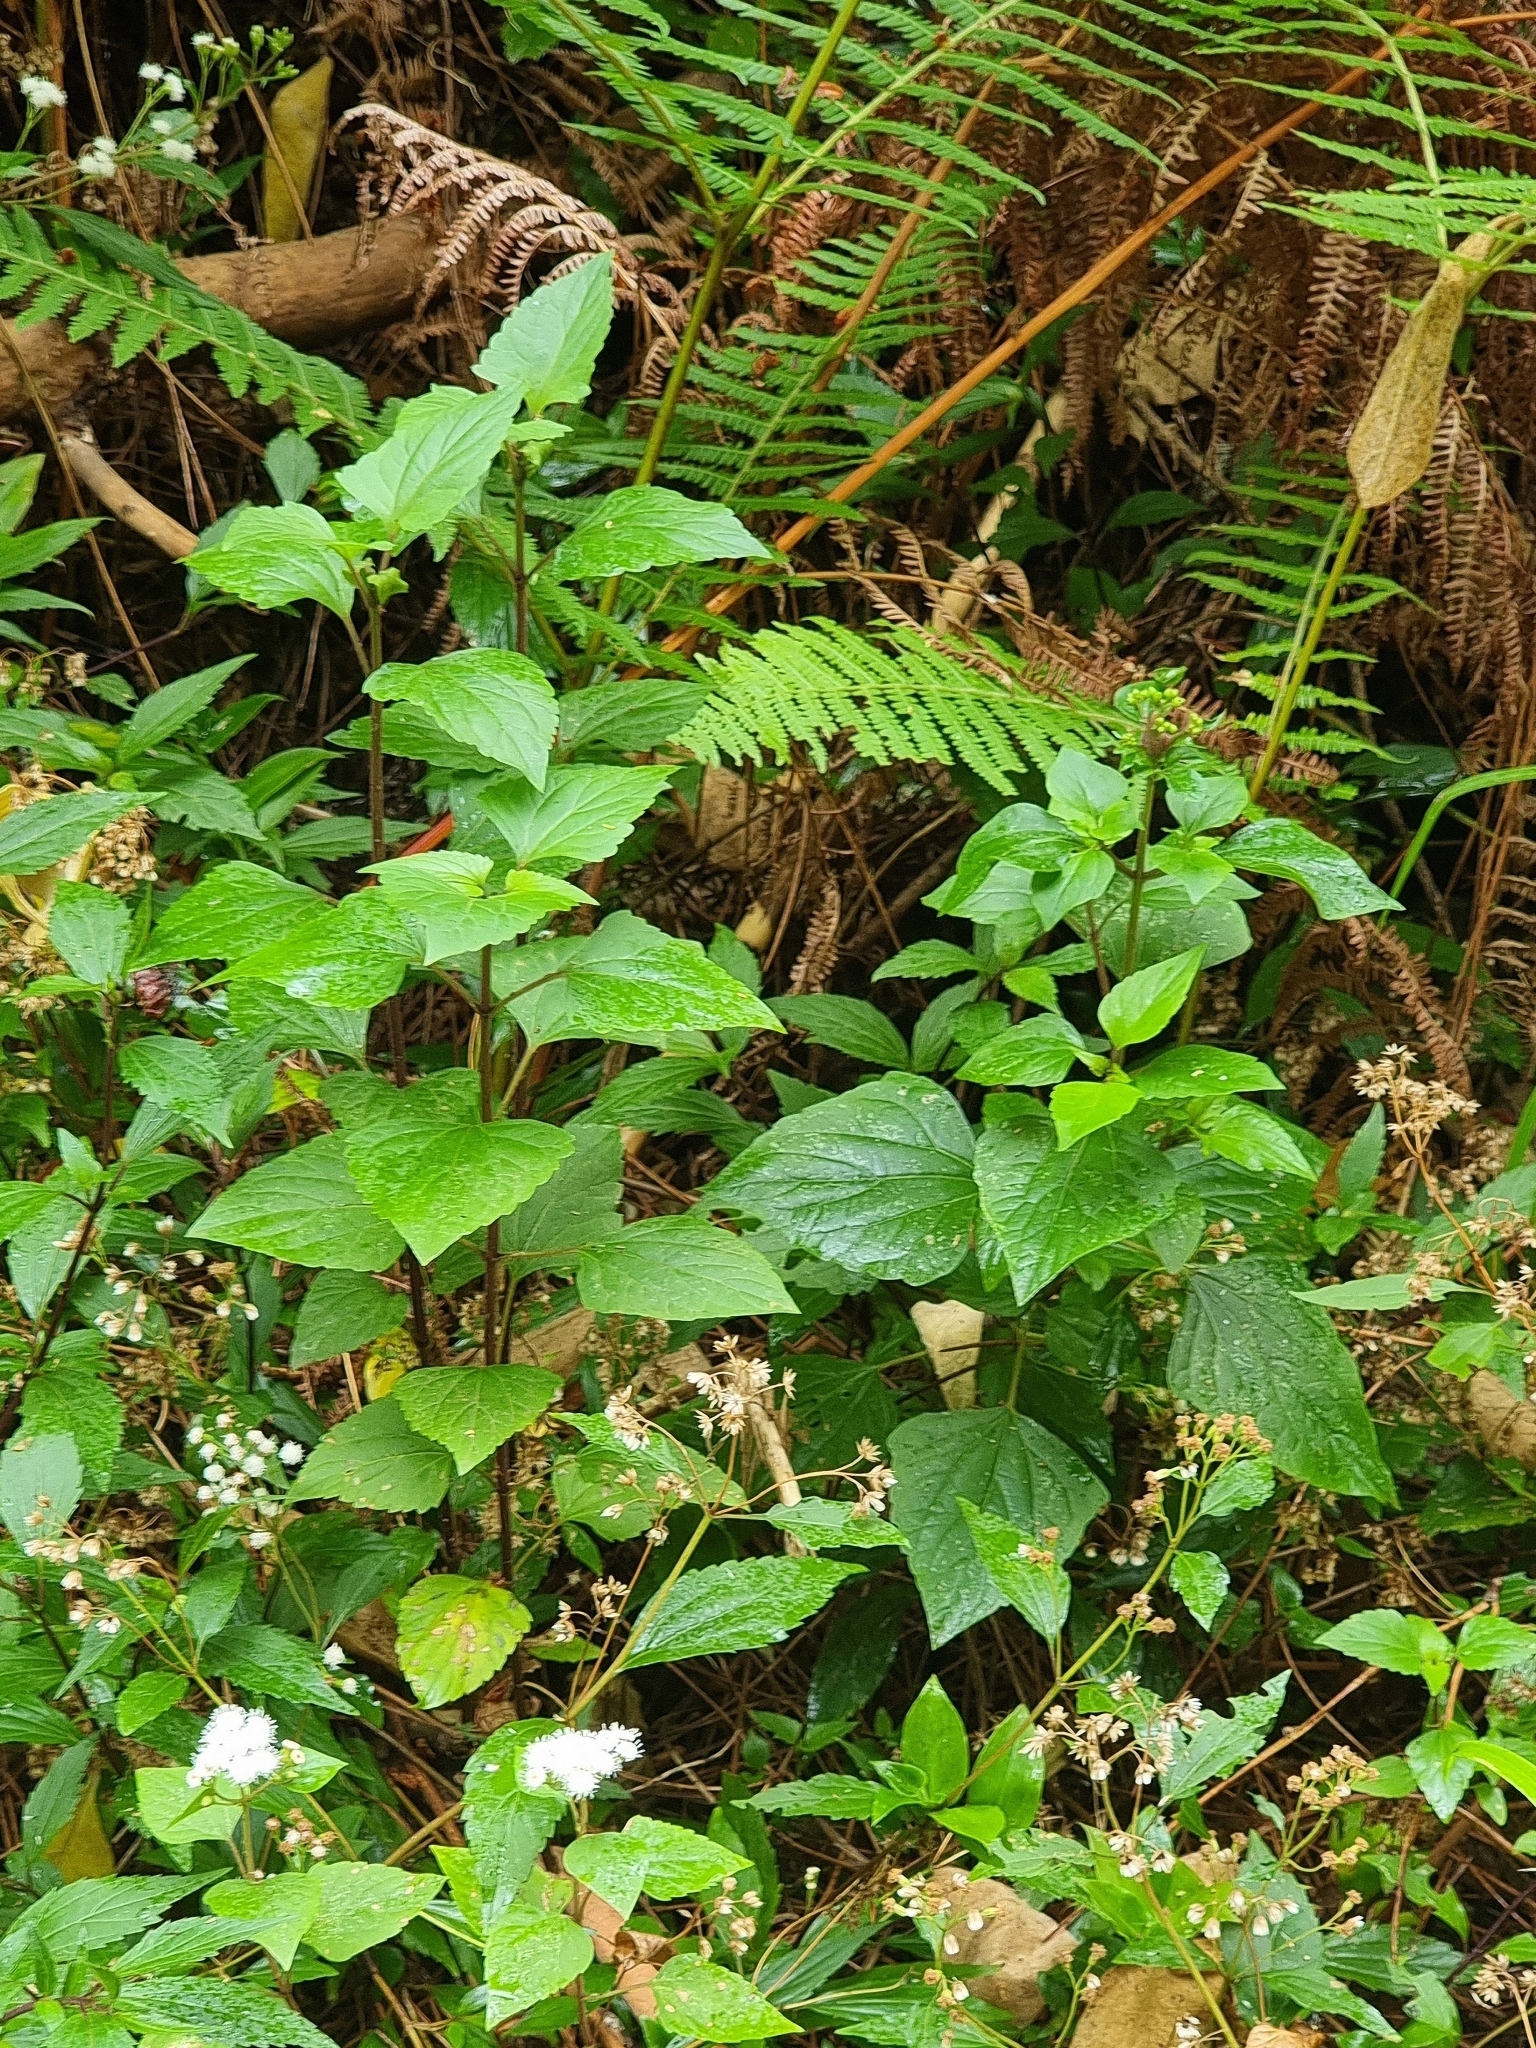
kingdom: Plantae
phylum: Tracheophyta
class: Magnoliopsida
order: Asterales
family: Asteraceae
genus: Ageratina
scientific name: Ageratina adenophora
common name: Sticky snakeroot
